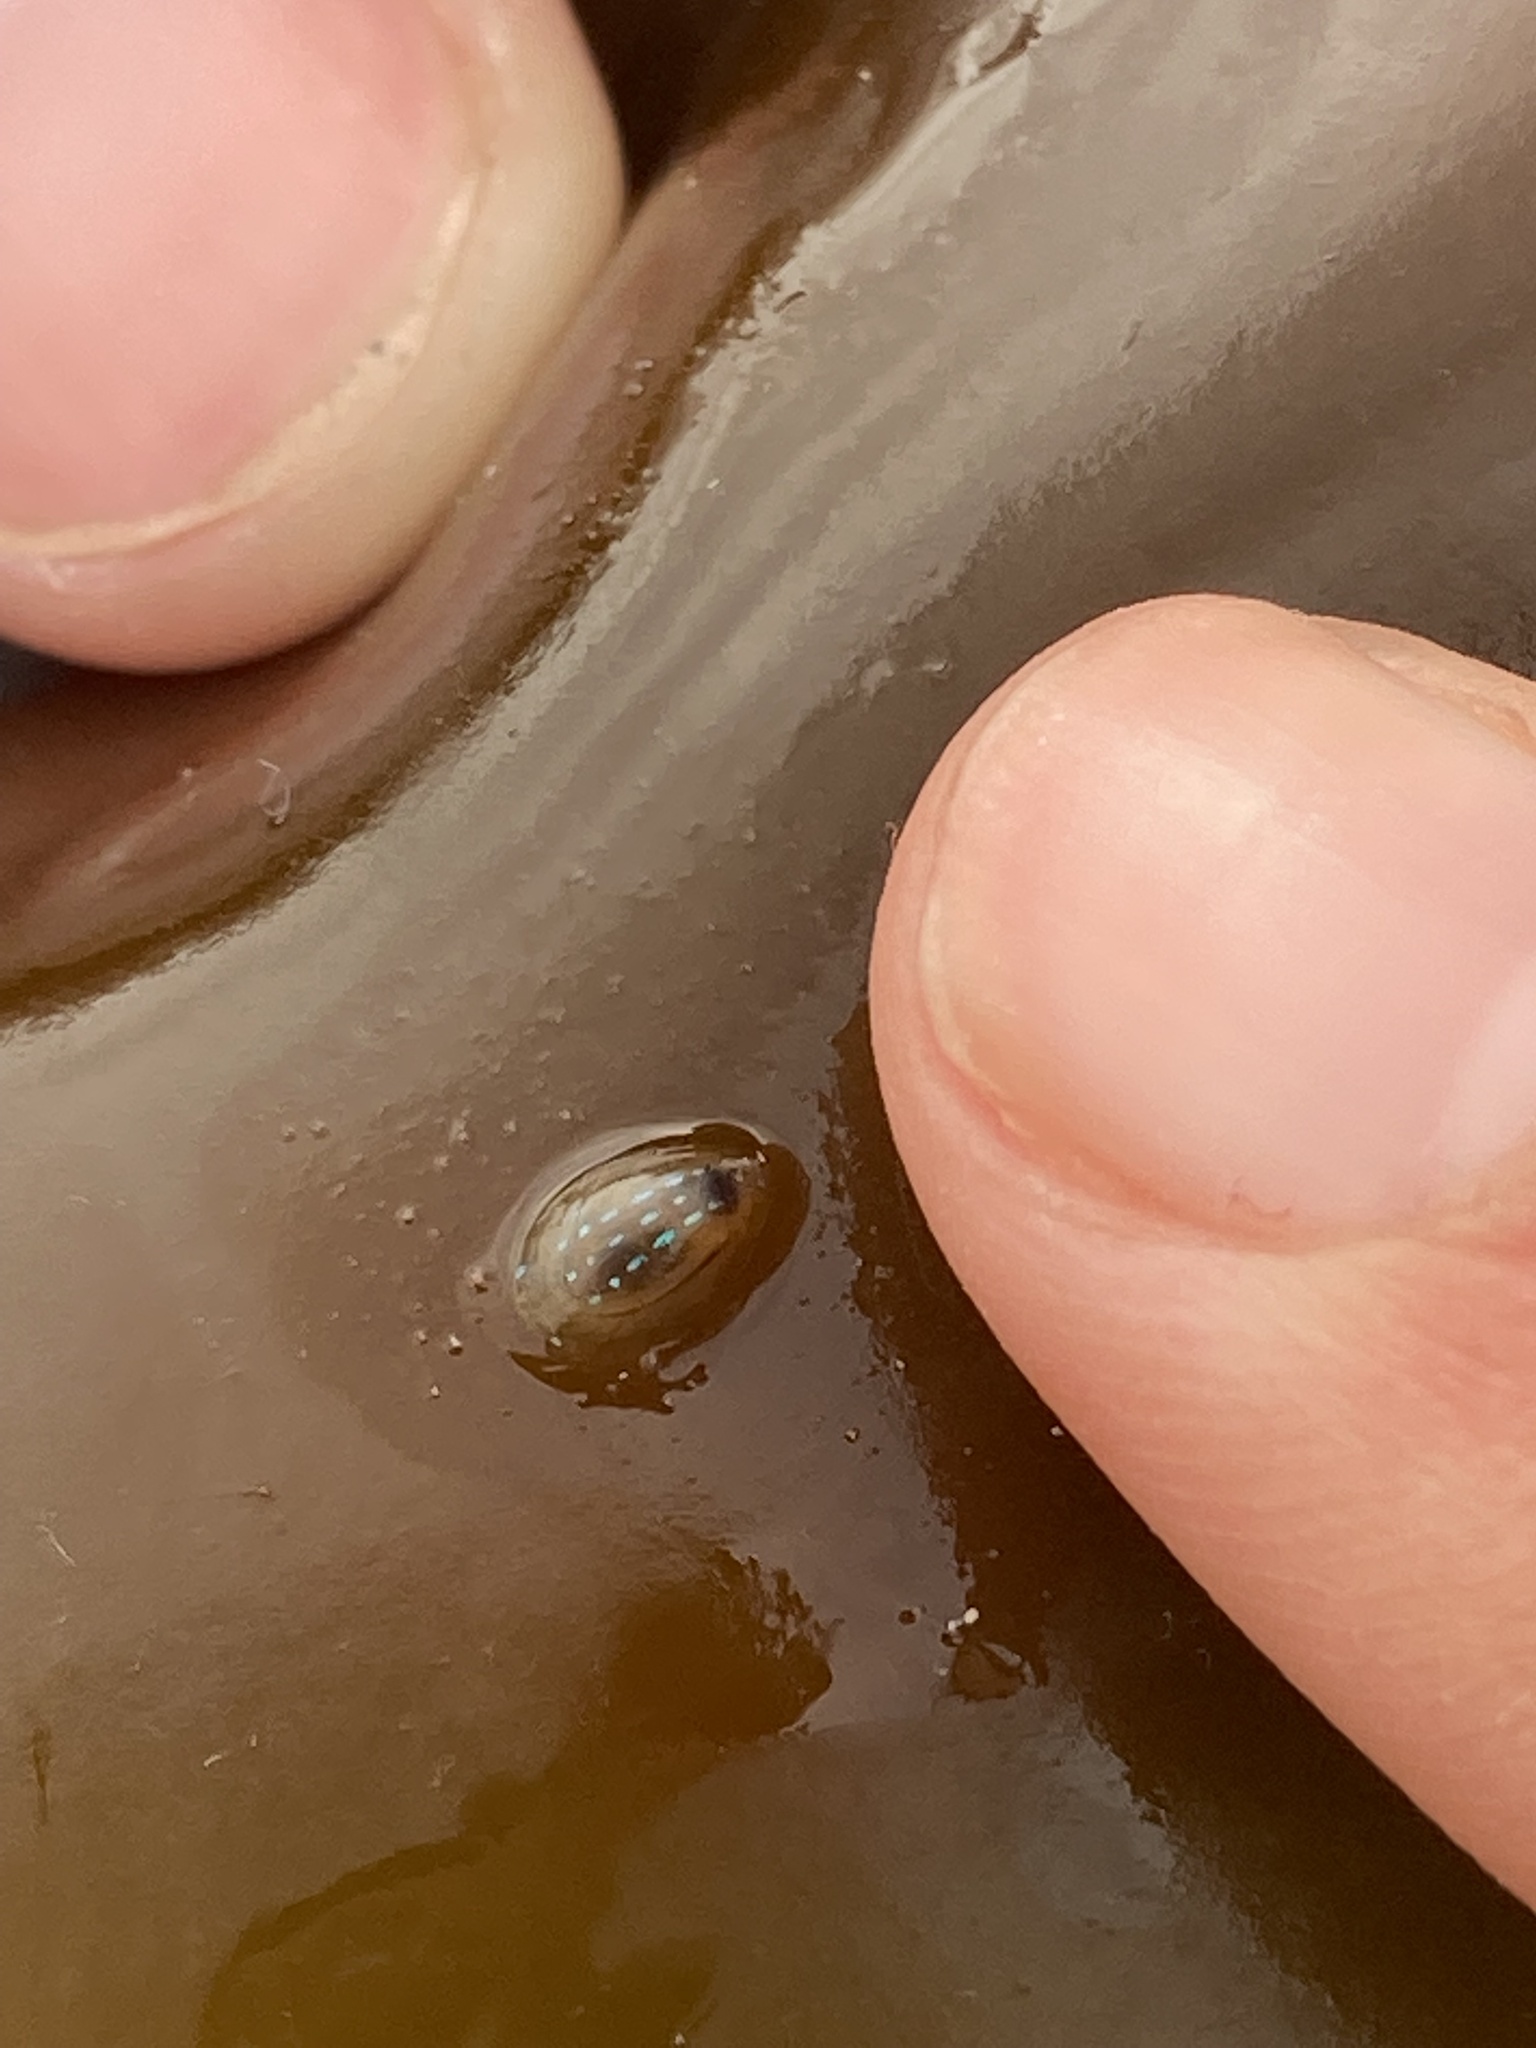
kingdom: Animalia
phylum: Mollusca
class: Gastropoda
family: Patellidae
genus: Patella
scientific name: Patella pellucida
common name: Blue-rayed limpet
